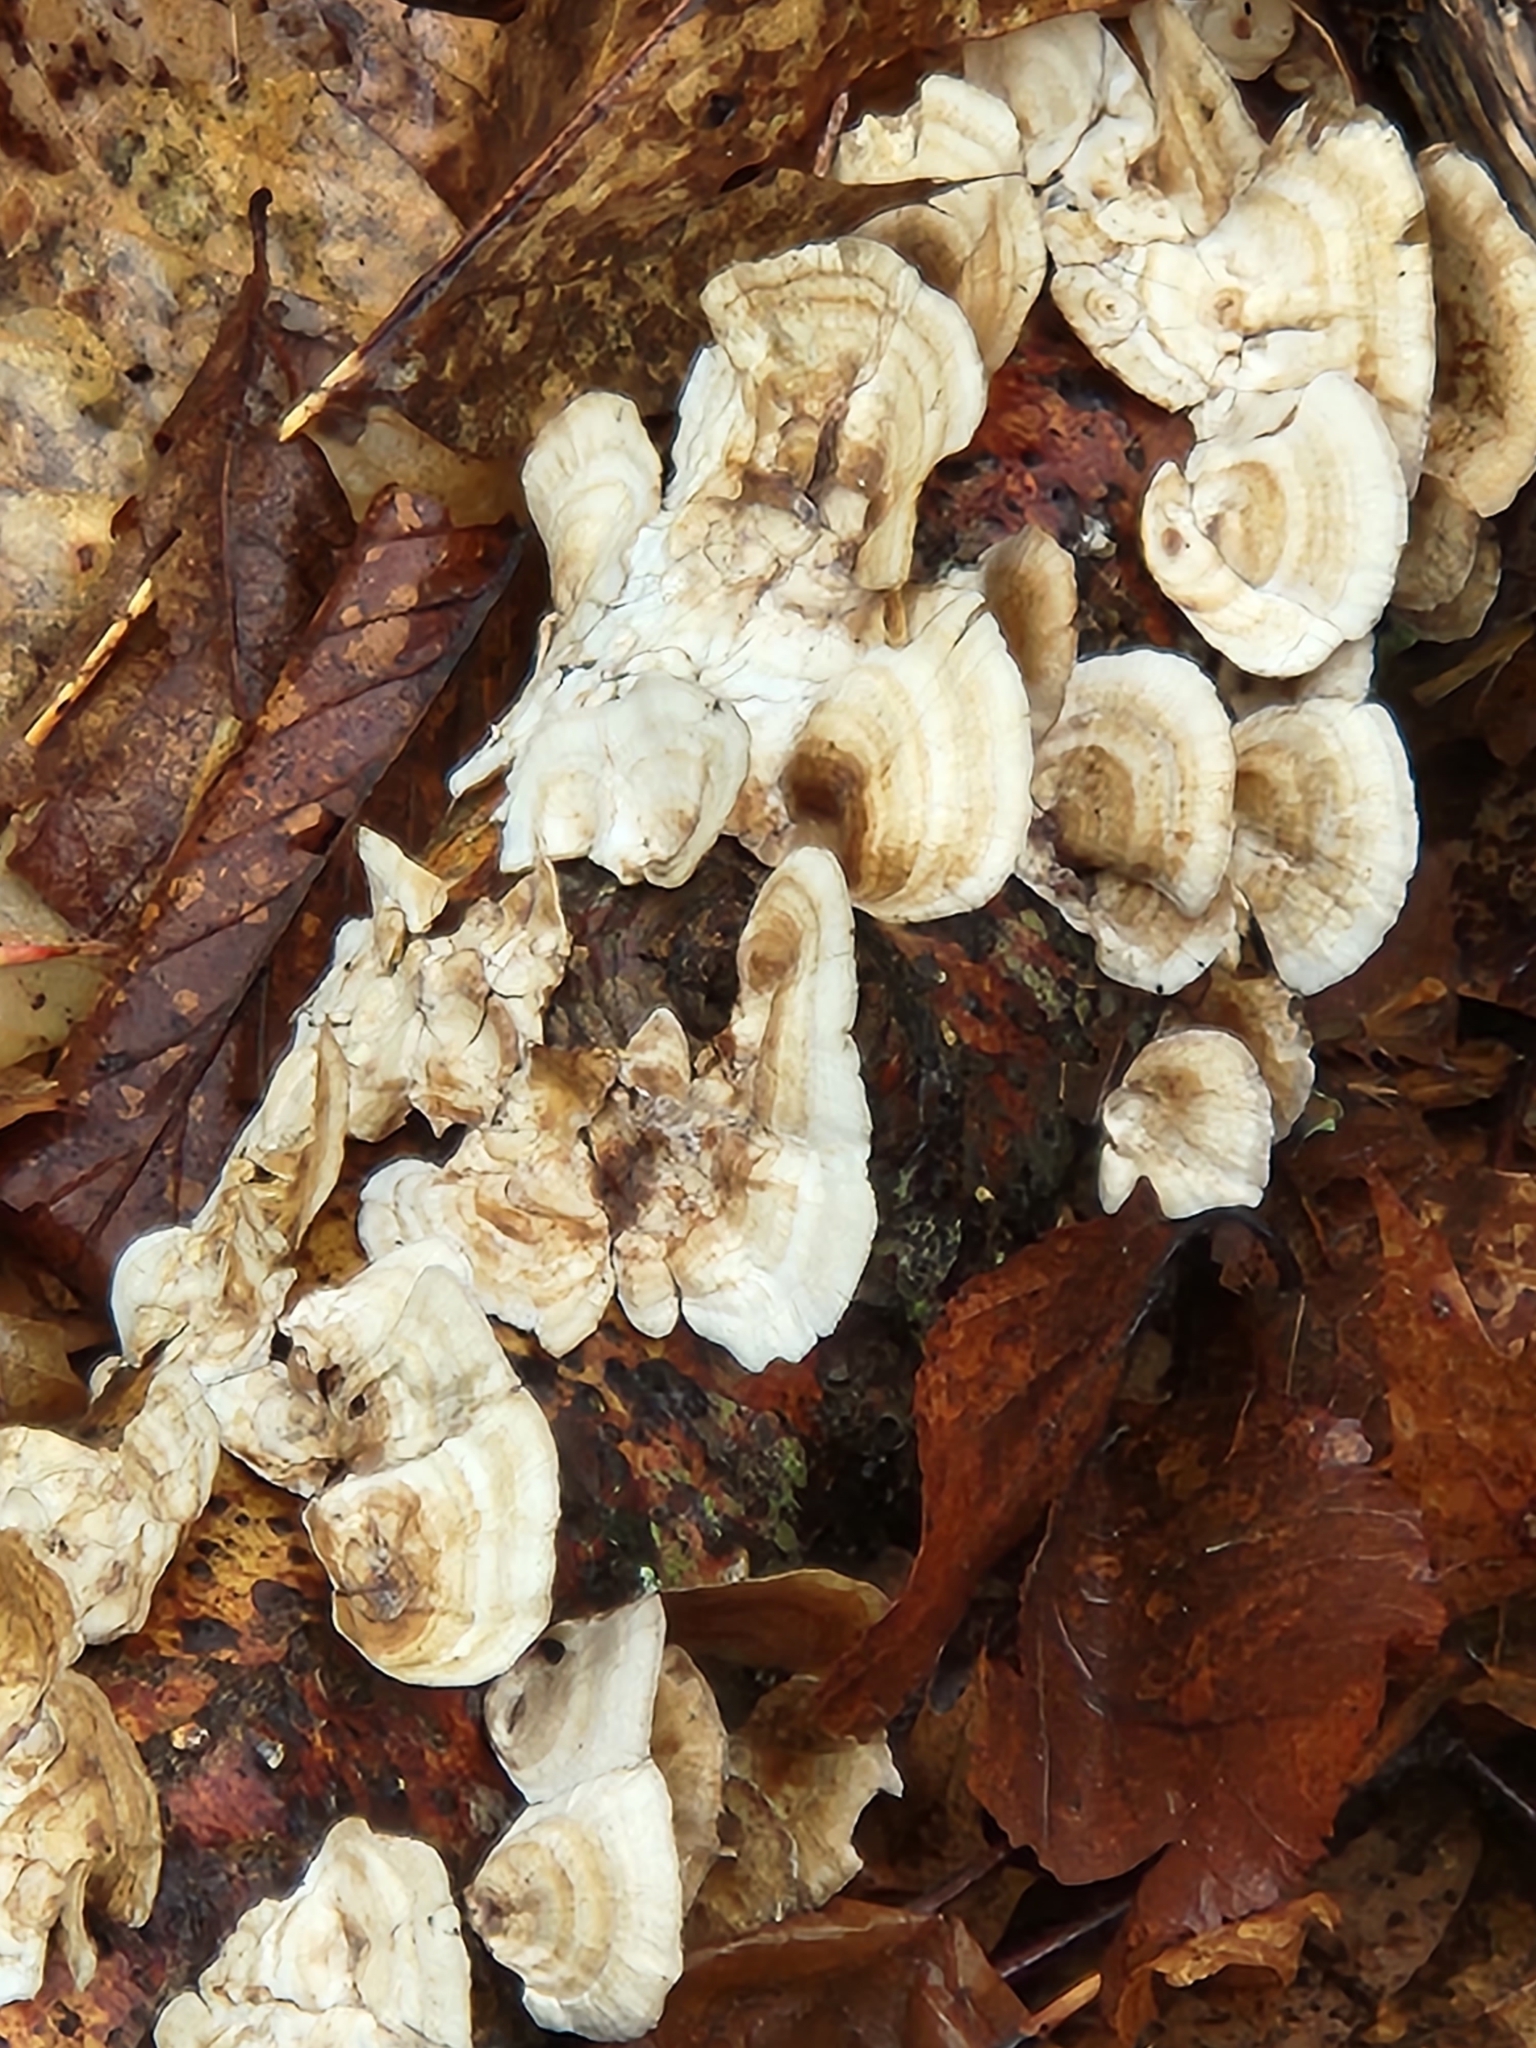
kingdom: Plantae
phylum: Tracheophyta
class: Liliopsida
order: Asparagales
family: Asparagaceae
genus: Maianthemum
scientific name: Maianthemum racemosum
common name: False spikenard
